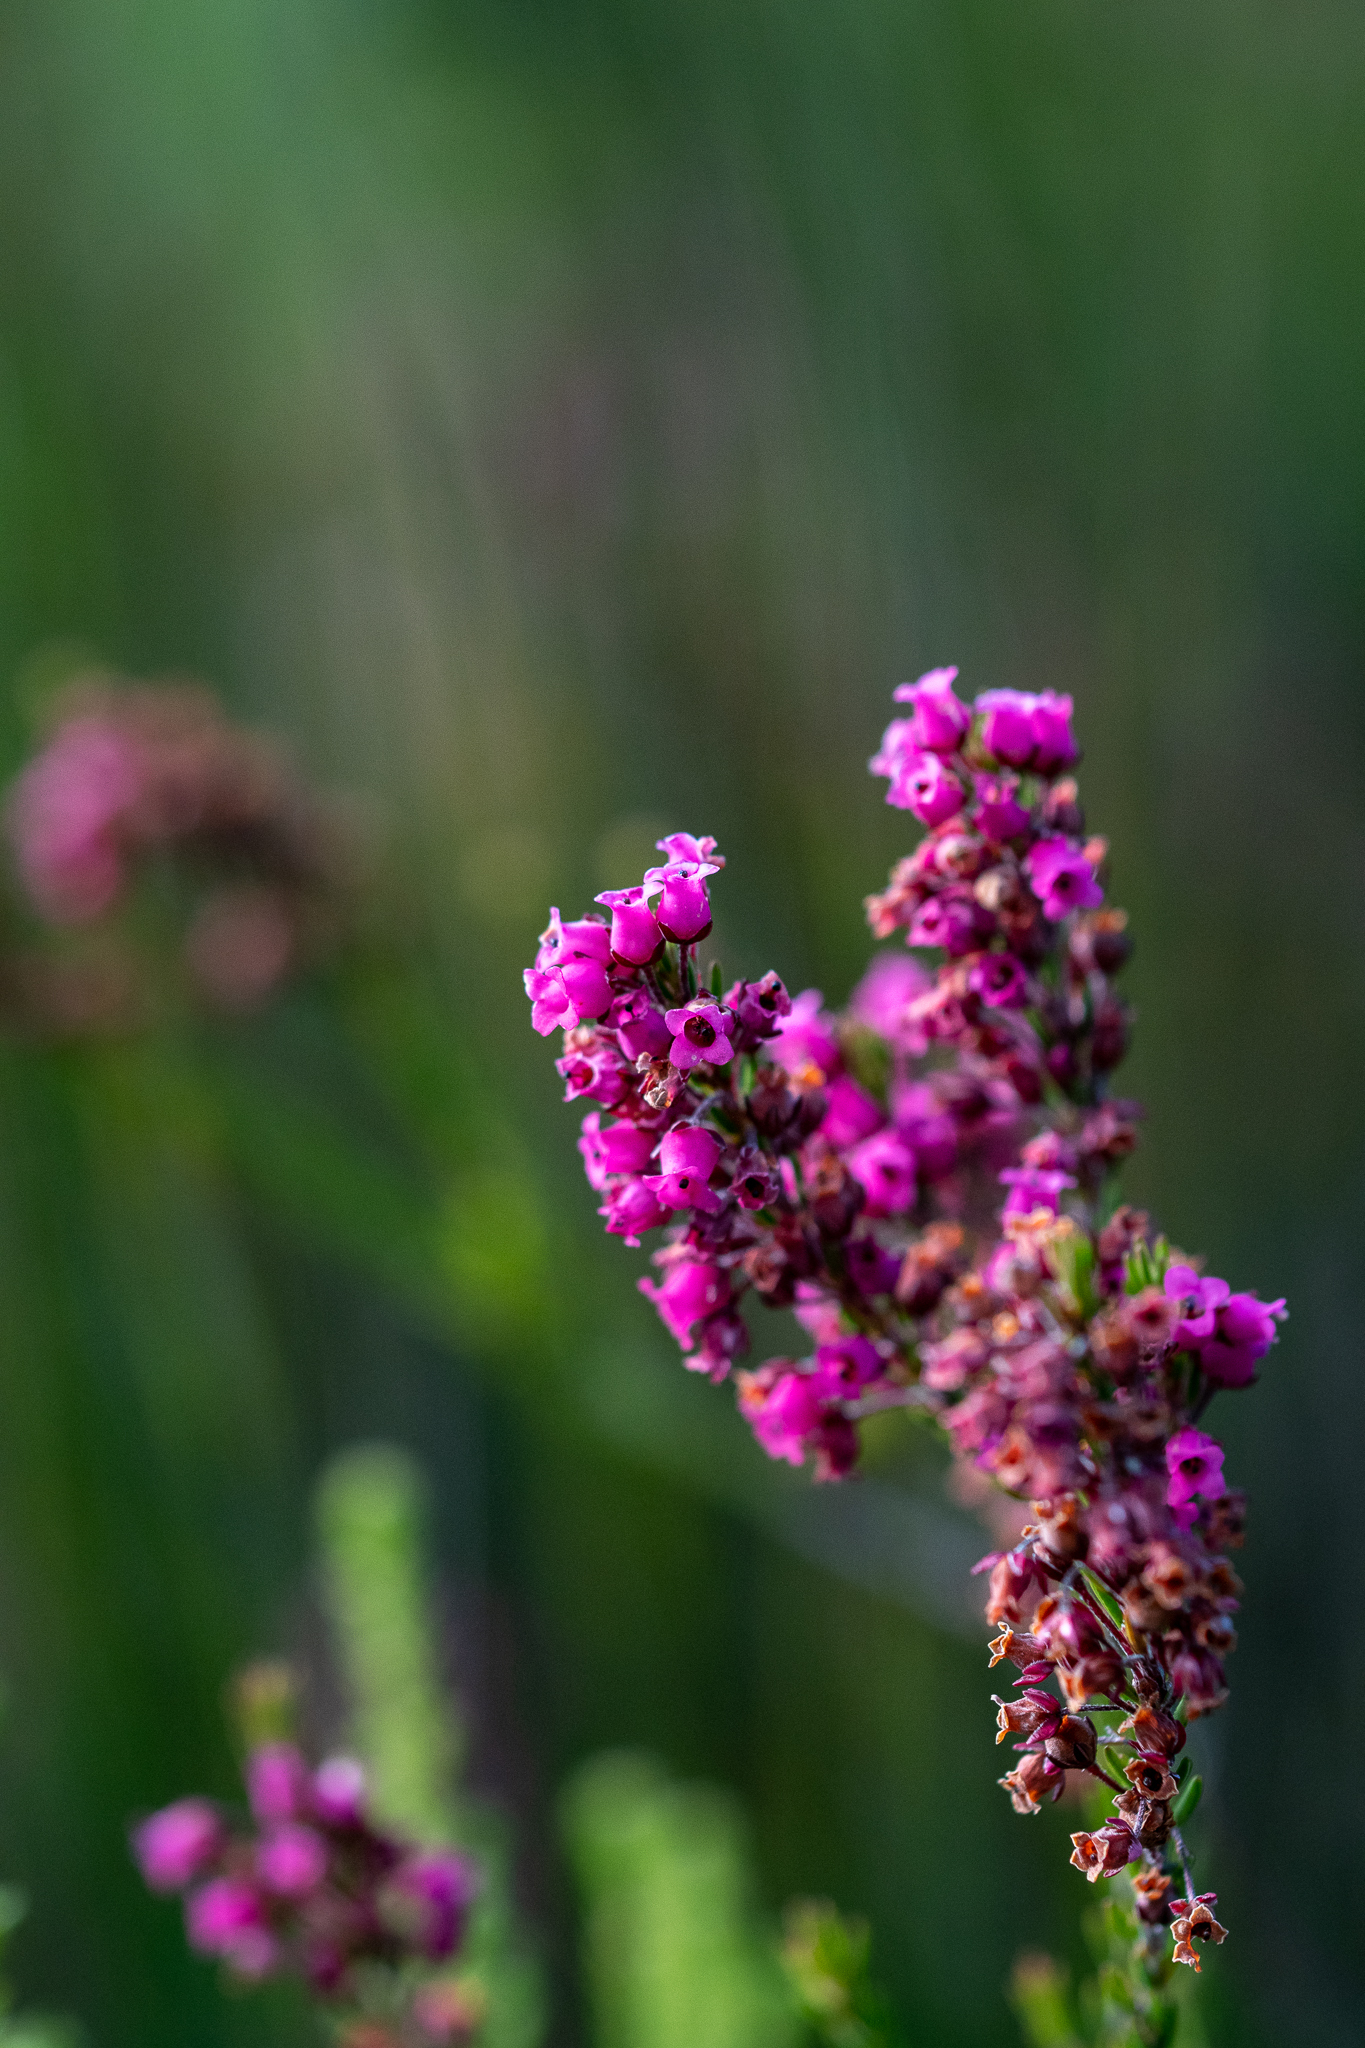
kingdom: Plantae
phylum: Tracheophyta
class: Magnoliopsida
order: Ericales
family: Ericaceae
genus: Erica
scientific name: Erica pulchella
